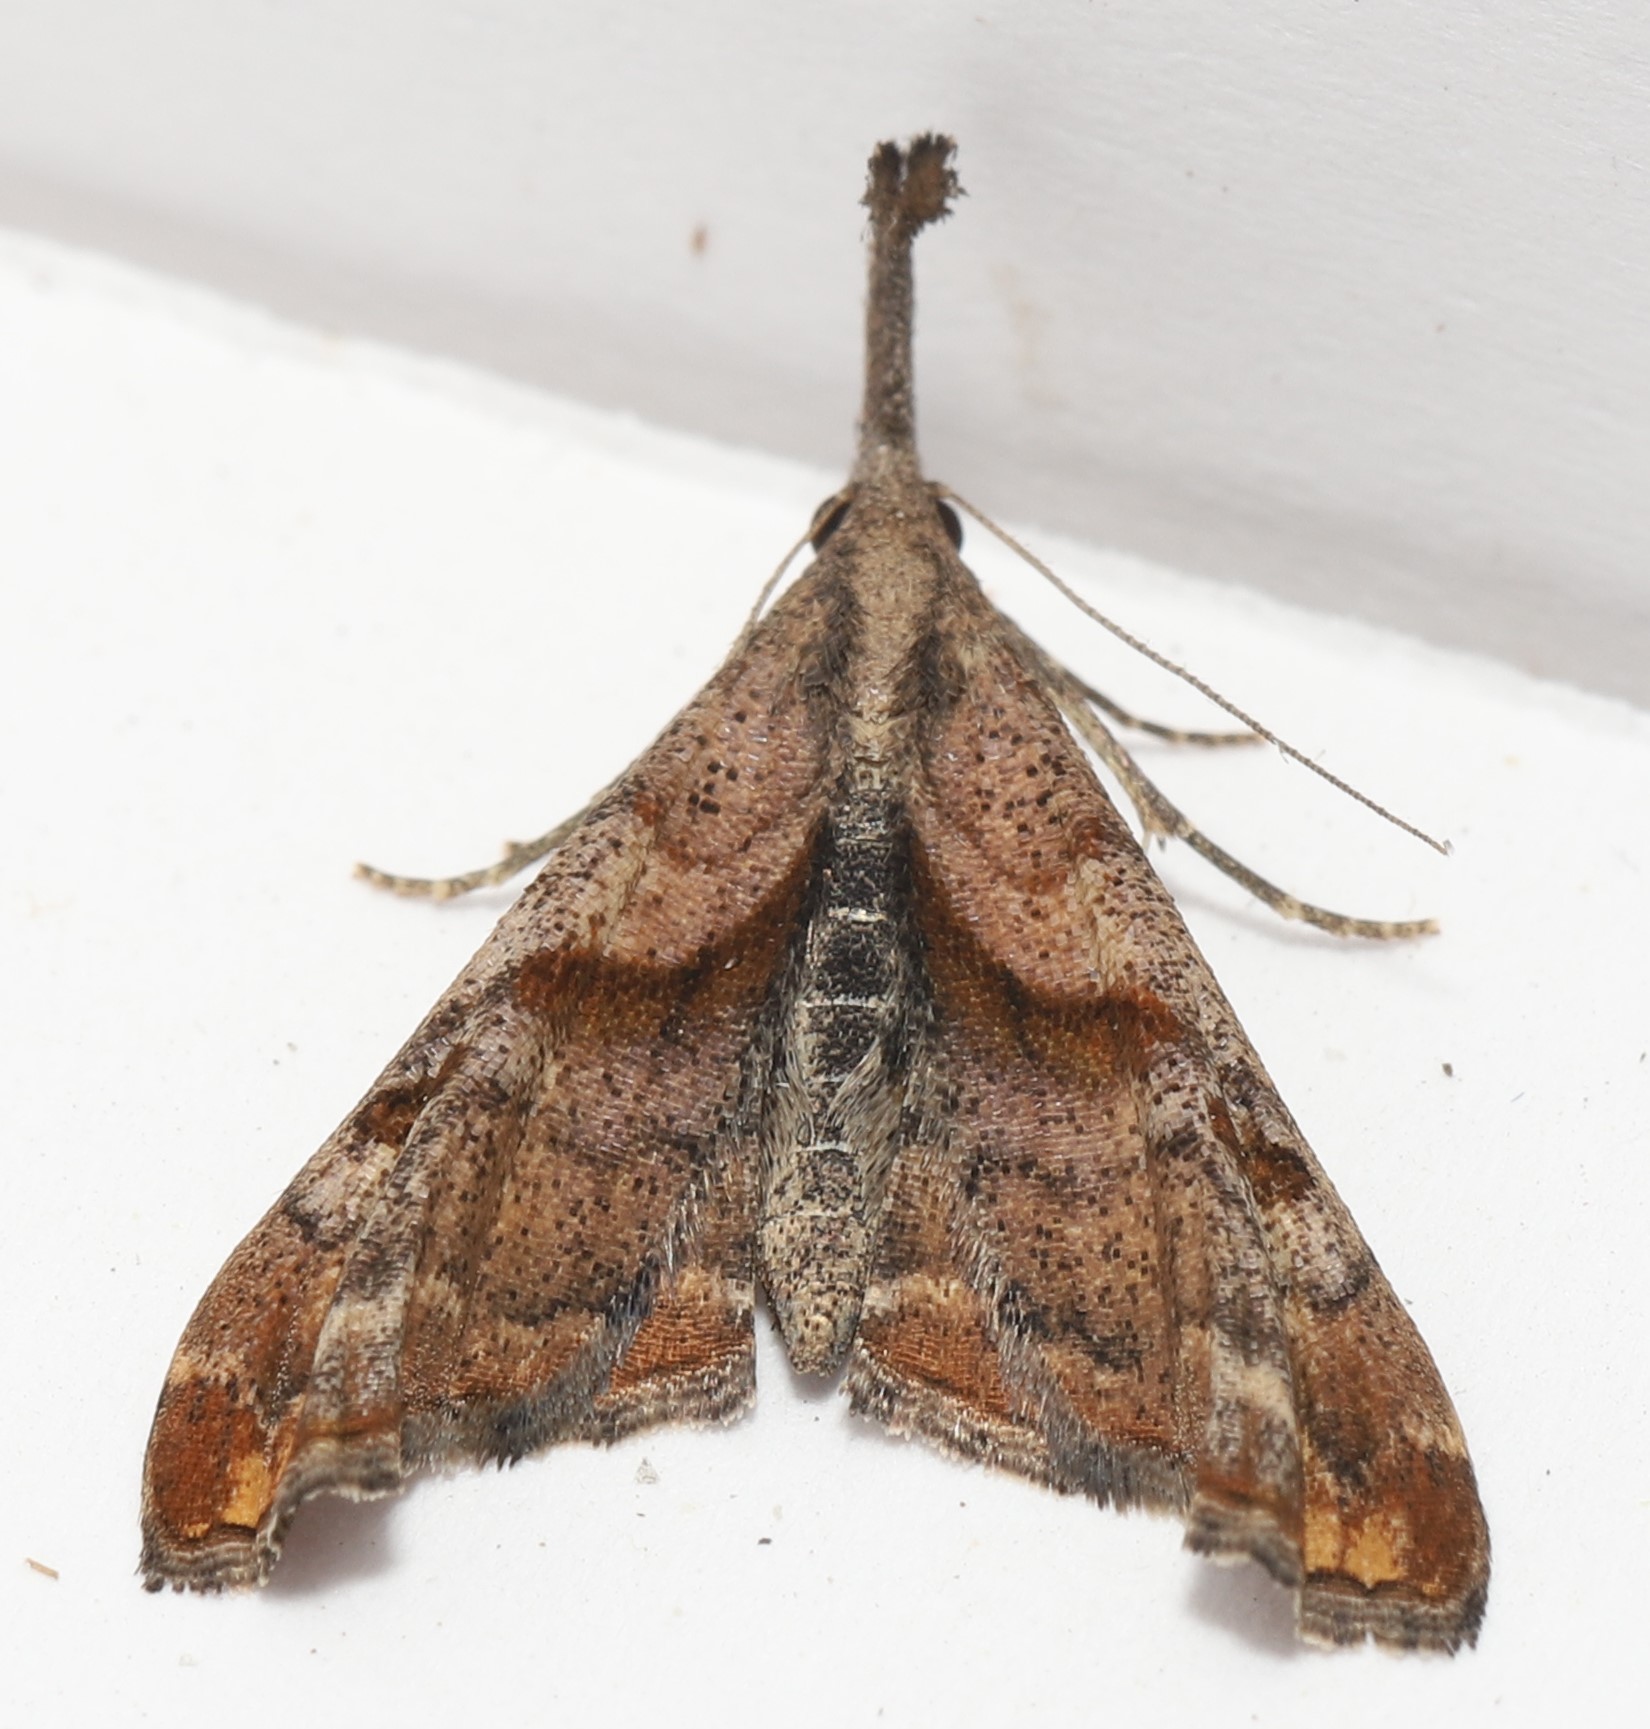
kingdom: Animalia
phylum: Arthropoda
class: Insecta
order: Lepidoptera
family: Erebidae
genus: Palthis
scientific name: Palthis angulalis
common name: Dark-spotted palthis moth
